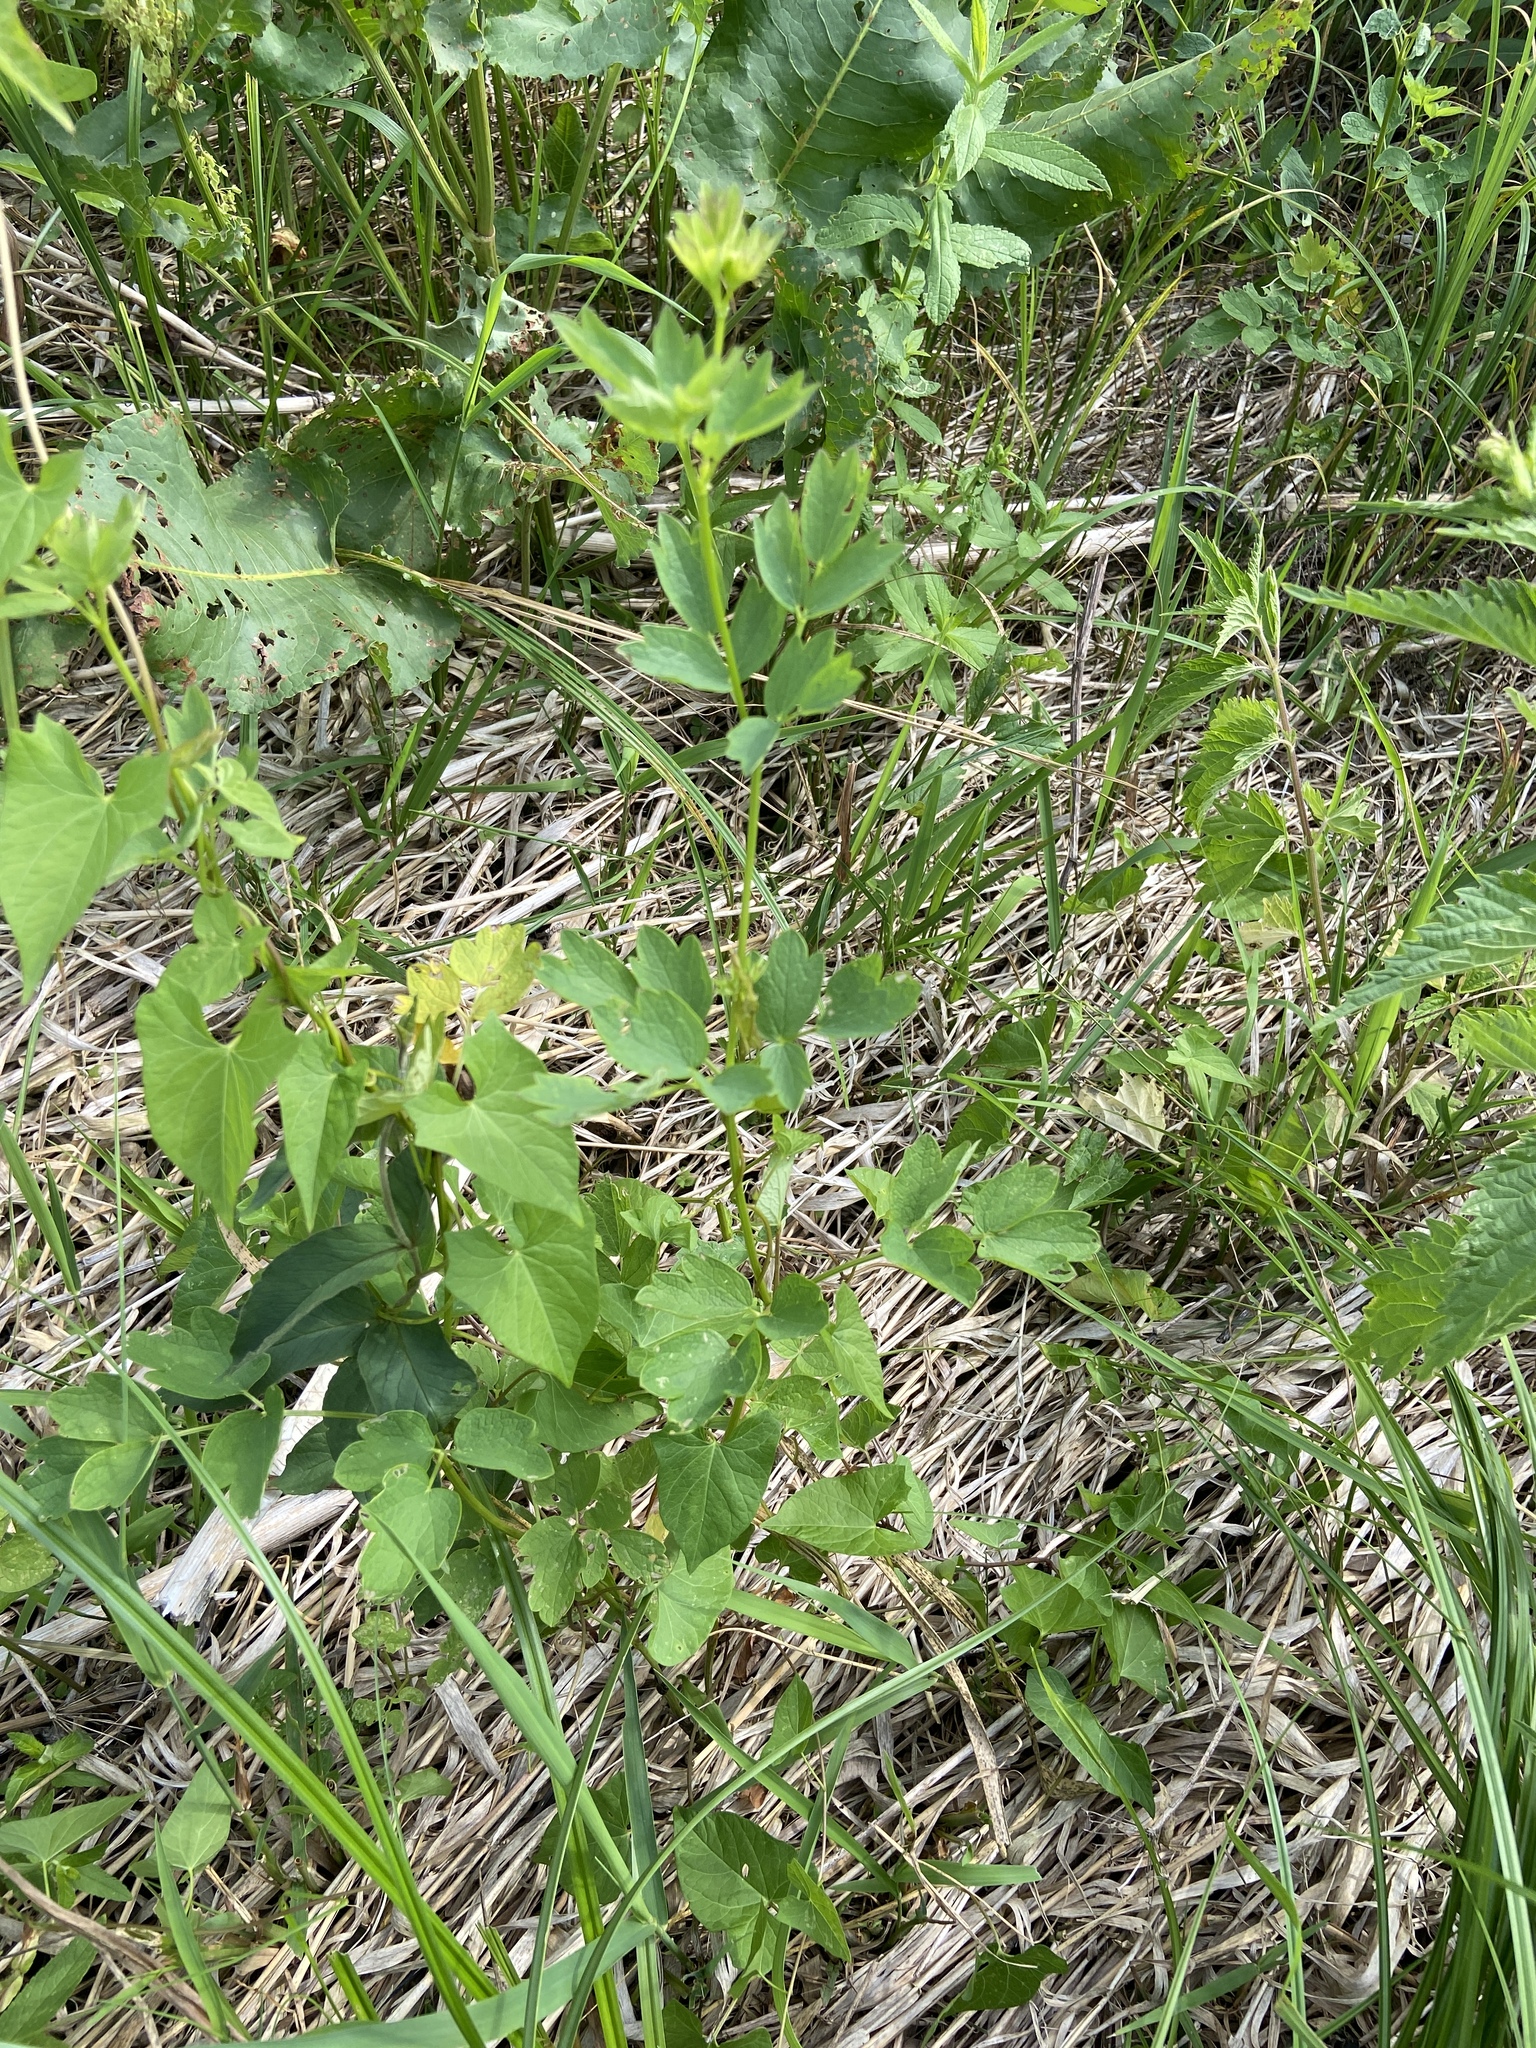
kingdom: Plantae
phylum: Tracheophyta
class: Magnoliopsida
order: Ranunculales
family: Ranunculaceae
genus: Thalictrum
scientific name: Thalictrum flavum
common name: Common meadow-rue
